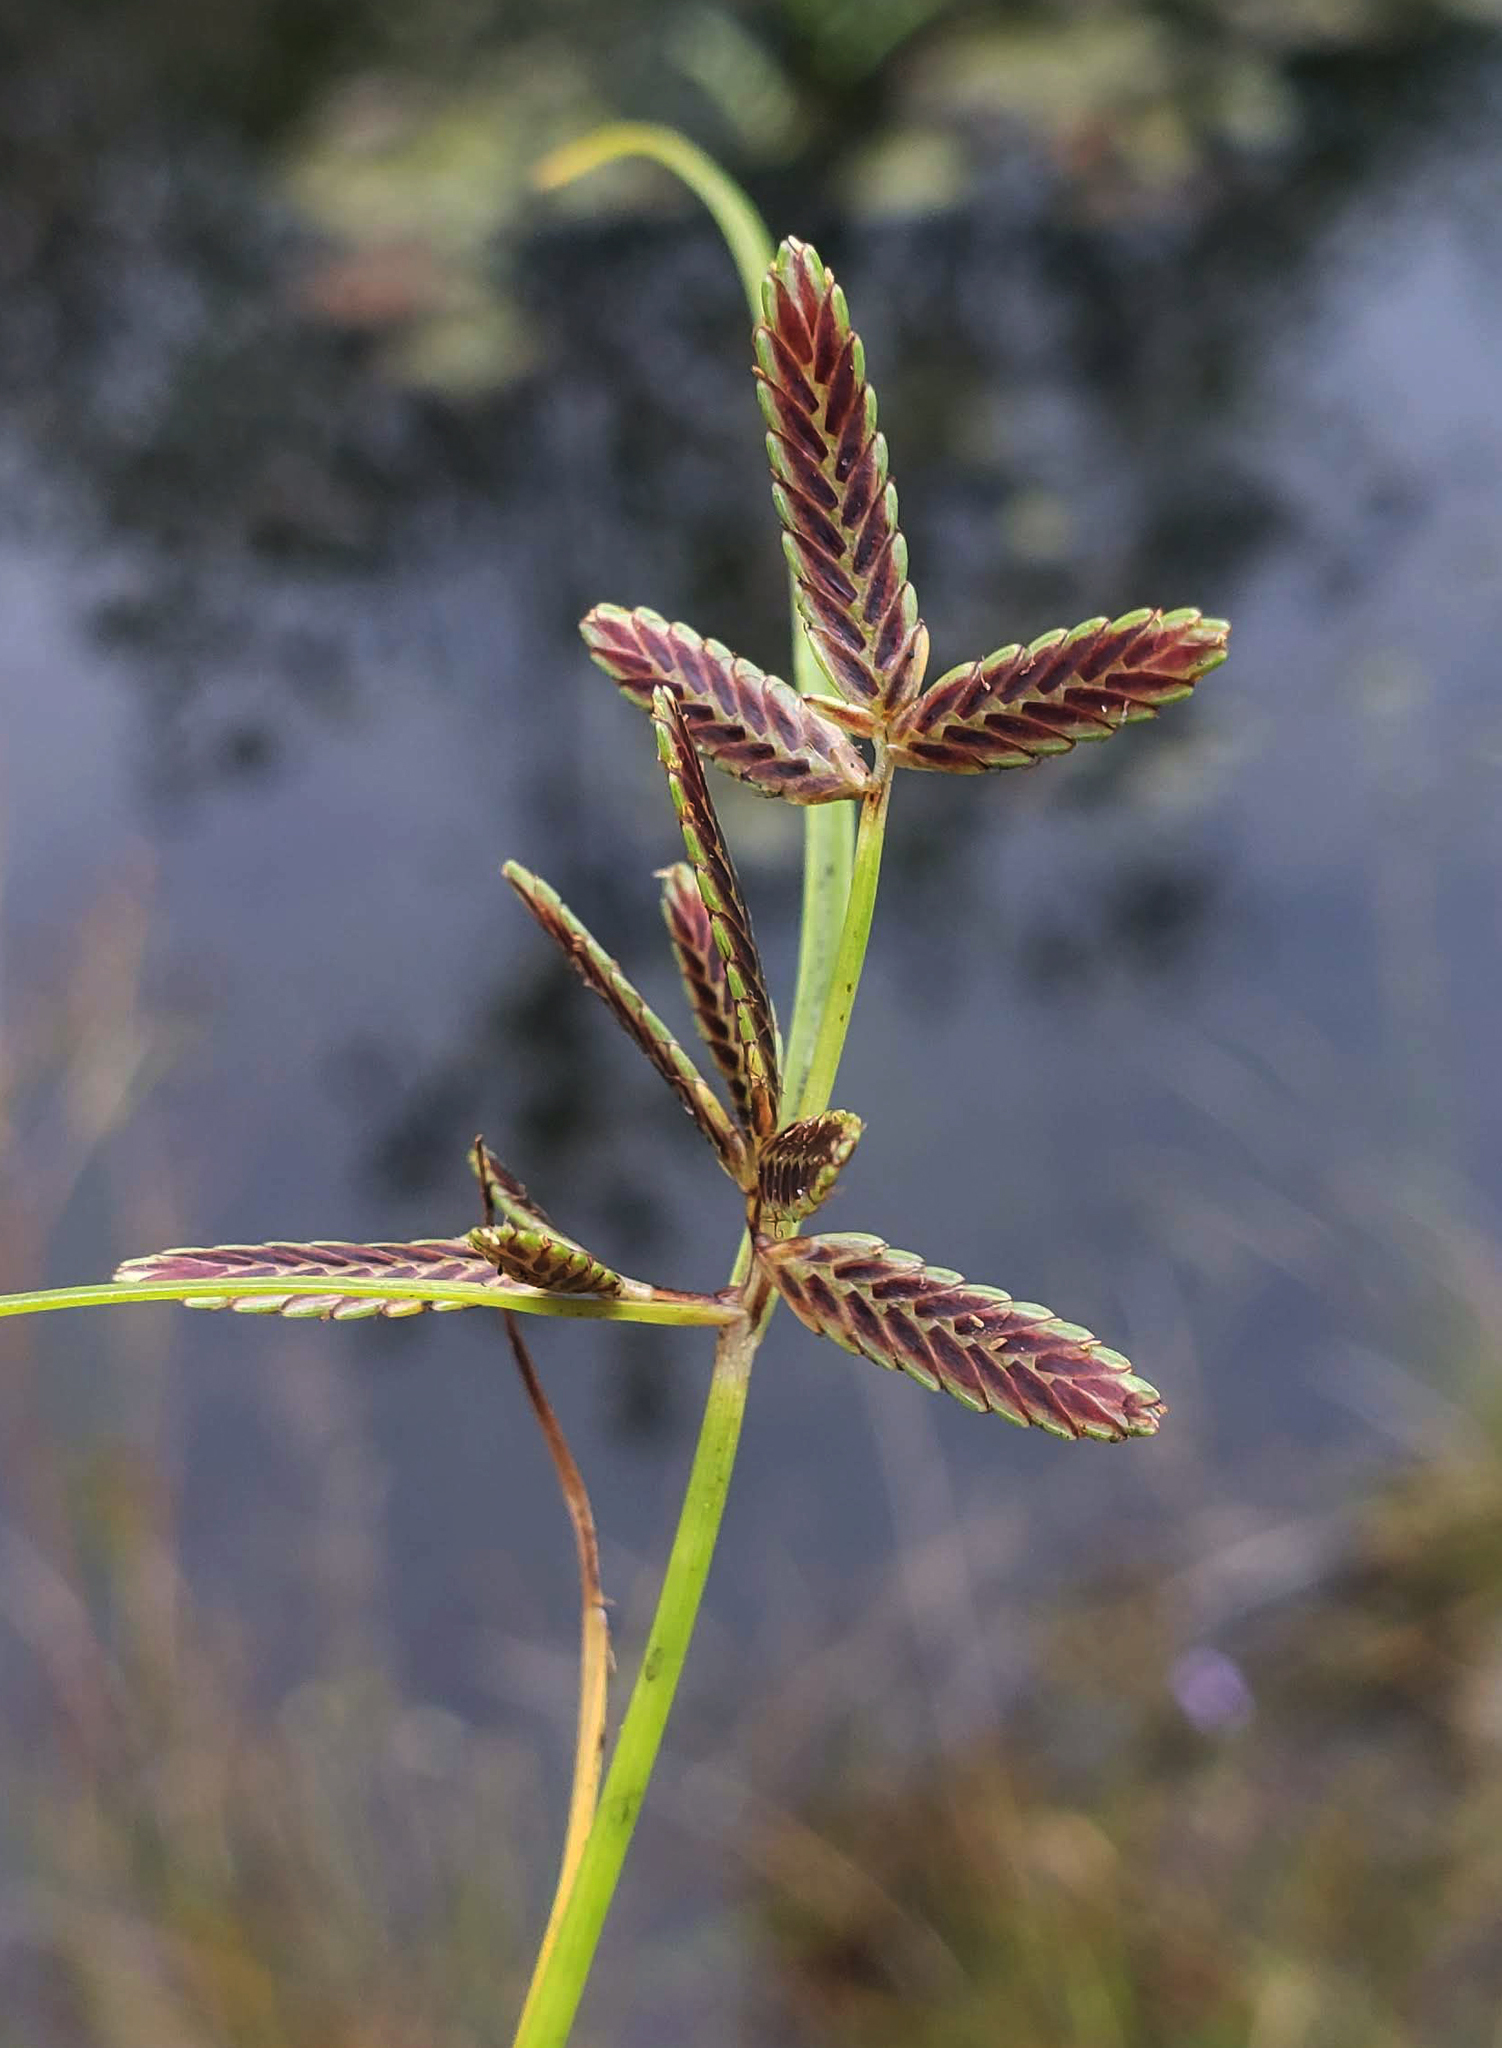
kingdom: Plantae
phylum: Tracheophyta
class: Liliopsida
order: Poales
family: Cyperaceae
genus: Cyperus
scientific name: Cyperus bipartitus
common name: Brook flatsedge
